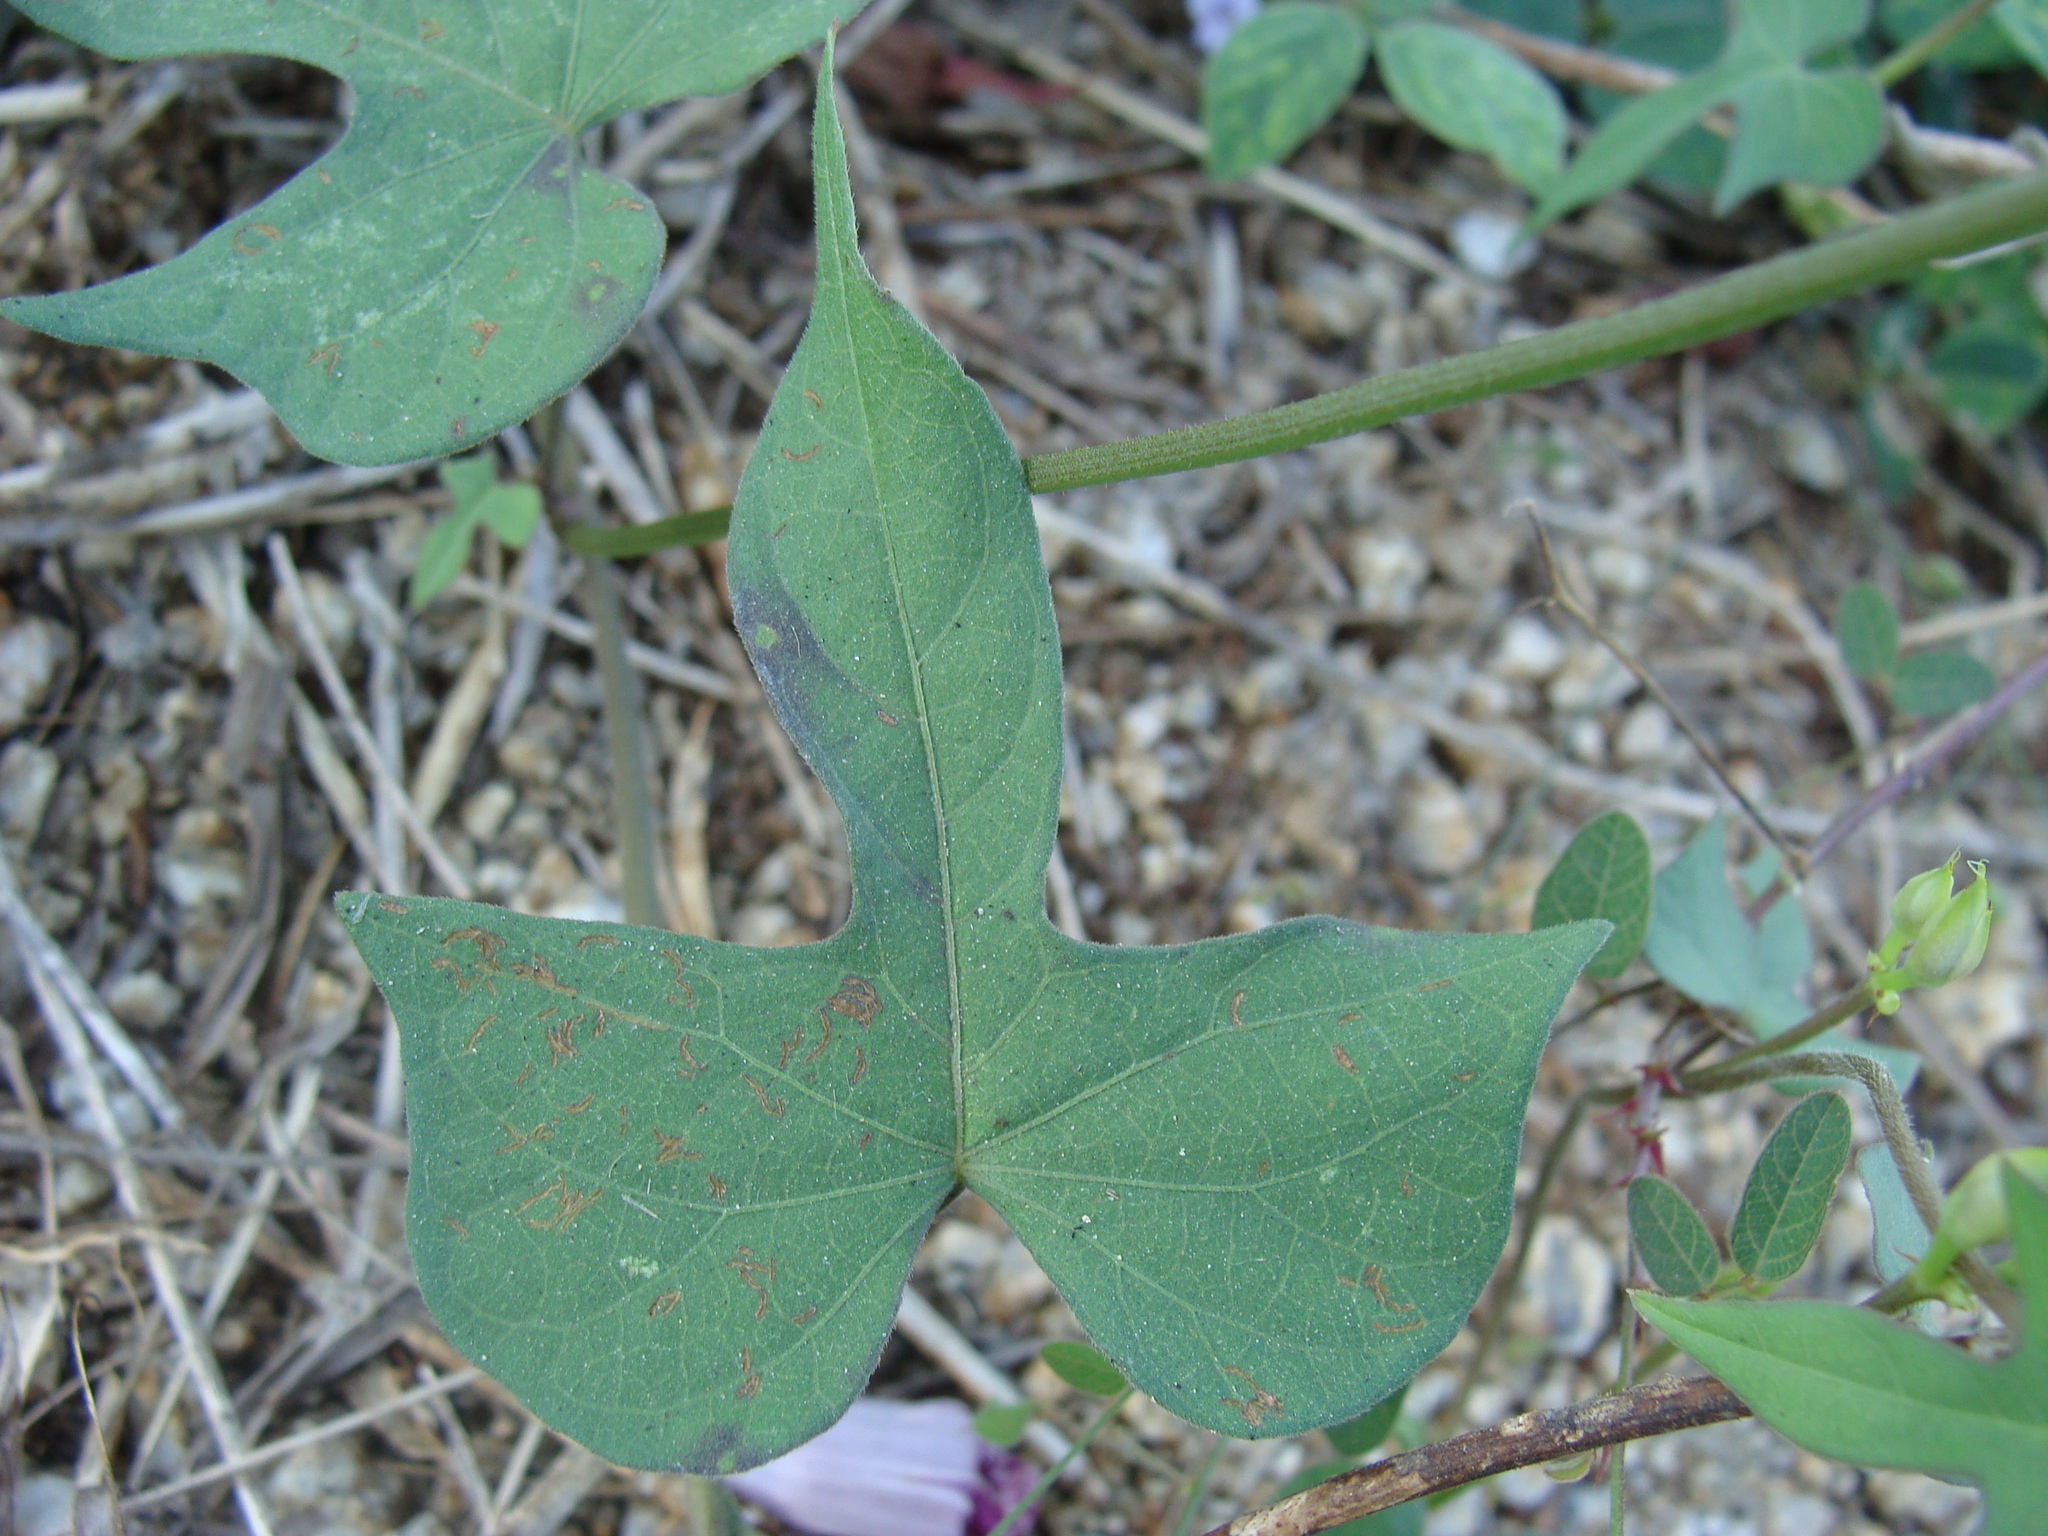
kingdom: Plantae
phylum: Tracheophyta
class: Magnoliopsida
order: Solanales
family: Convolvulaceae
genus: Ipomoea
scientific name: Ipomoea trifida
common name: Cotton morningglory
